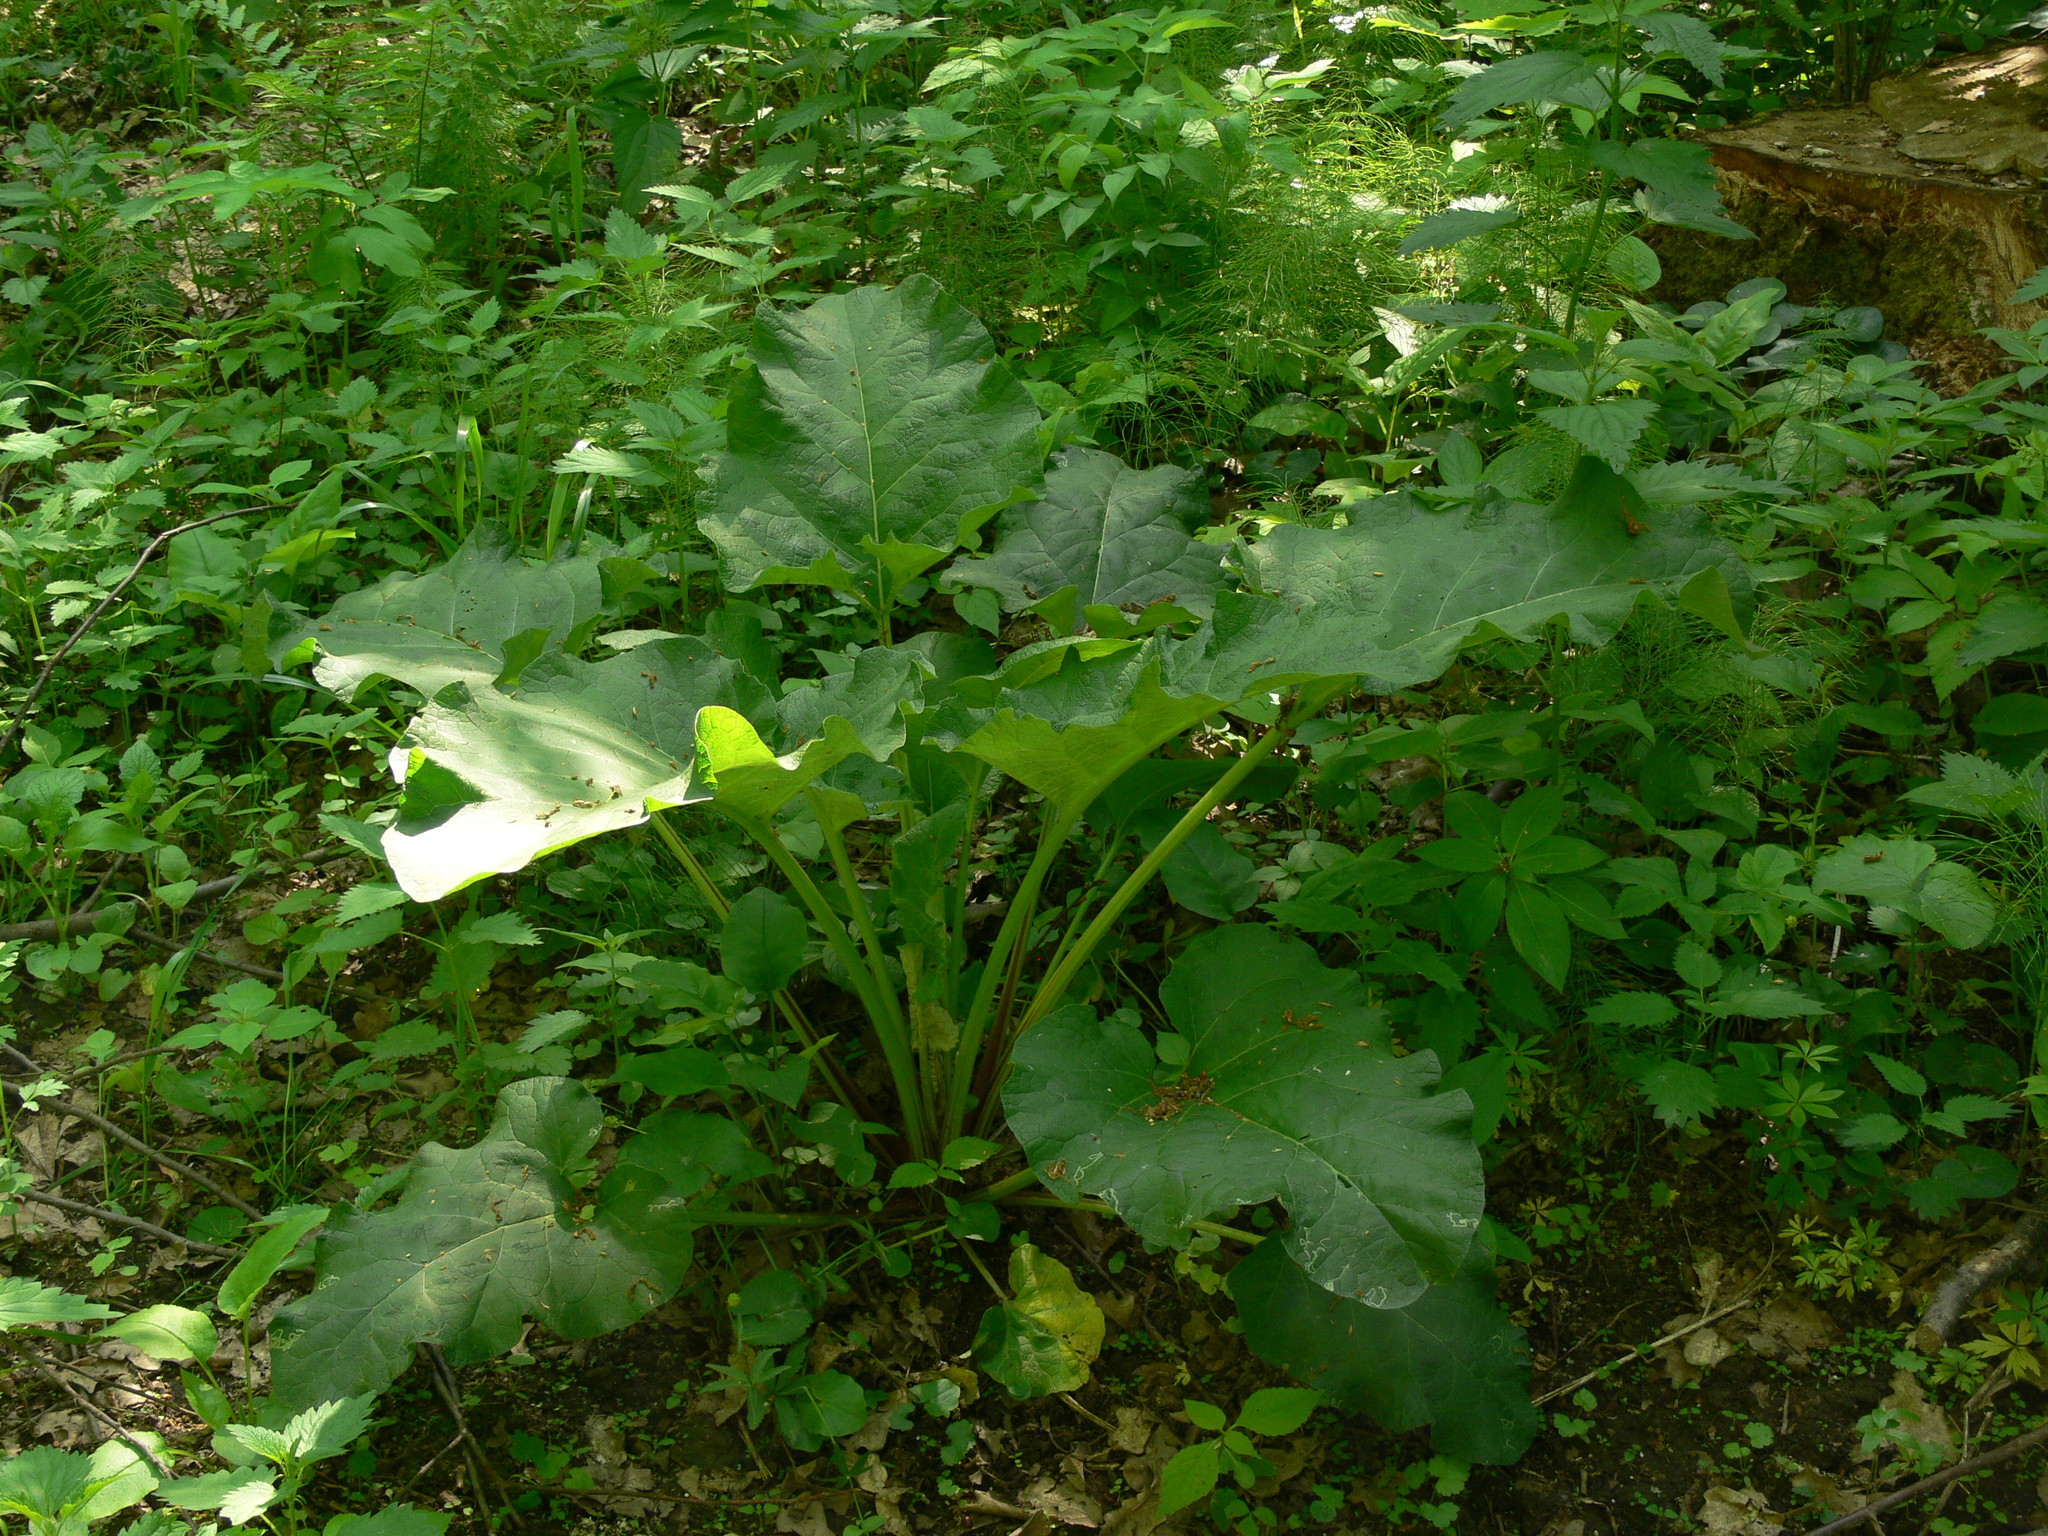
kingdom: Plantae
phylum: Tracheophyta
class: Magnoliopsida
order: Asterales
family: Asteraceae
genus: Arctium
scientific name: Arctium lappa
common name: Greater burdock
